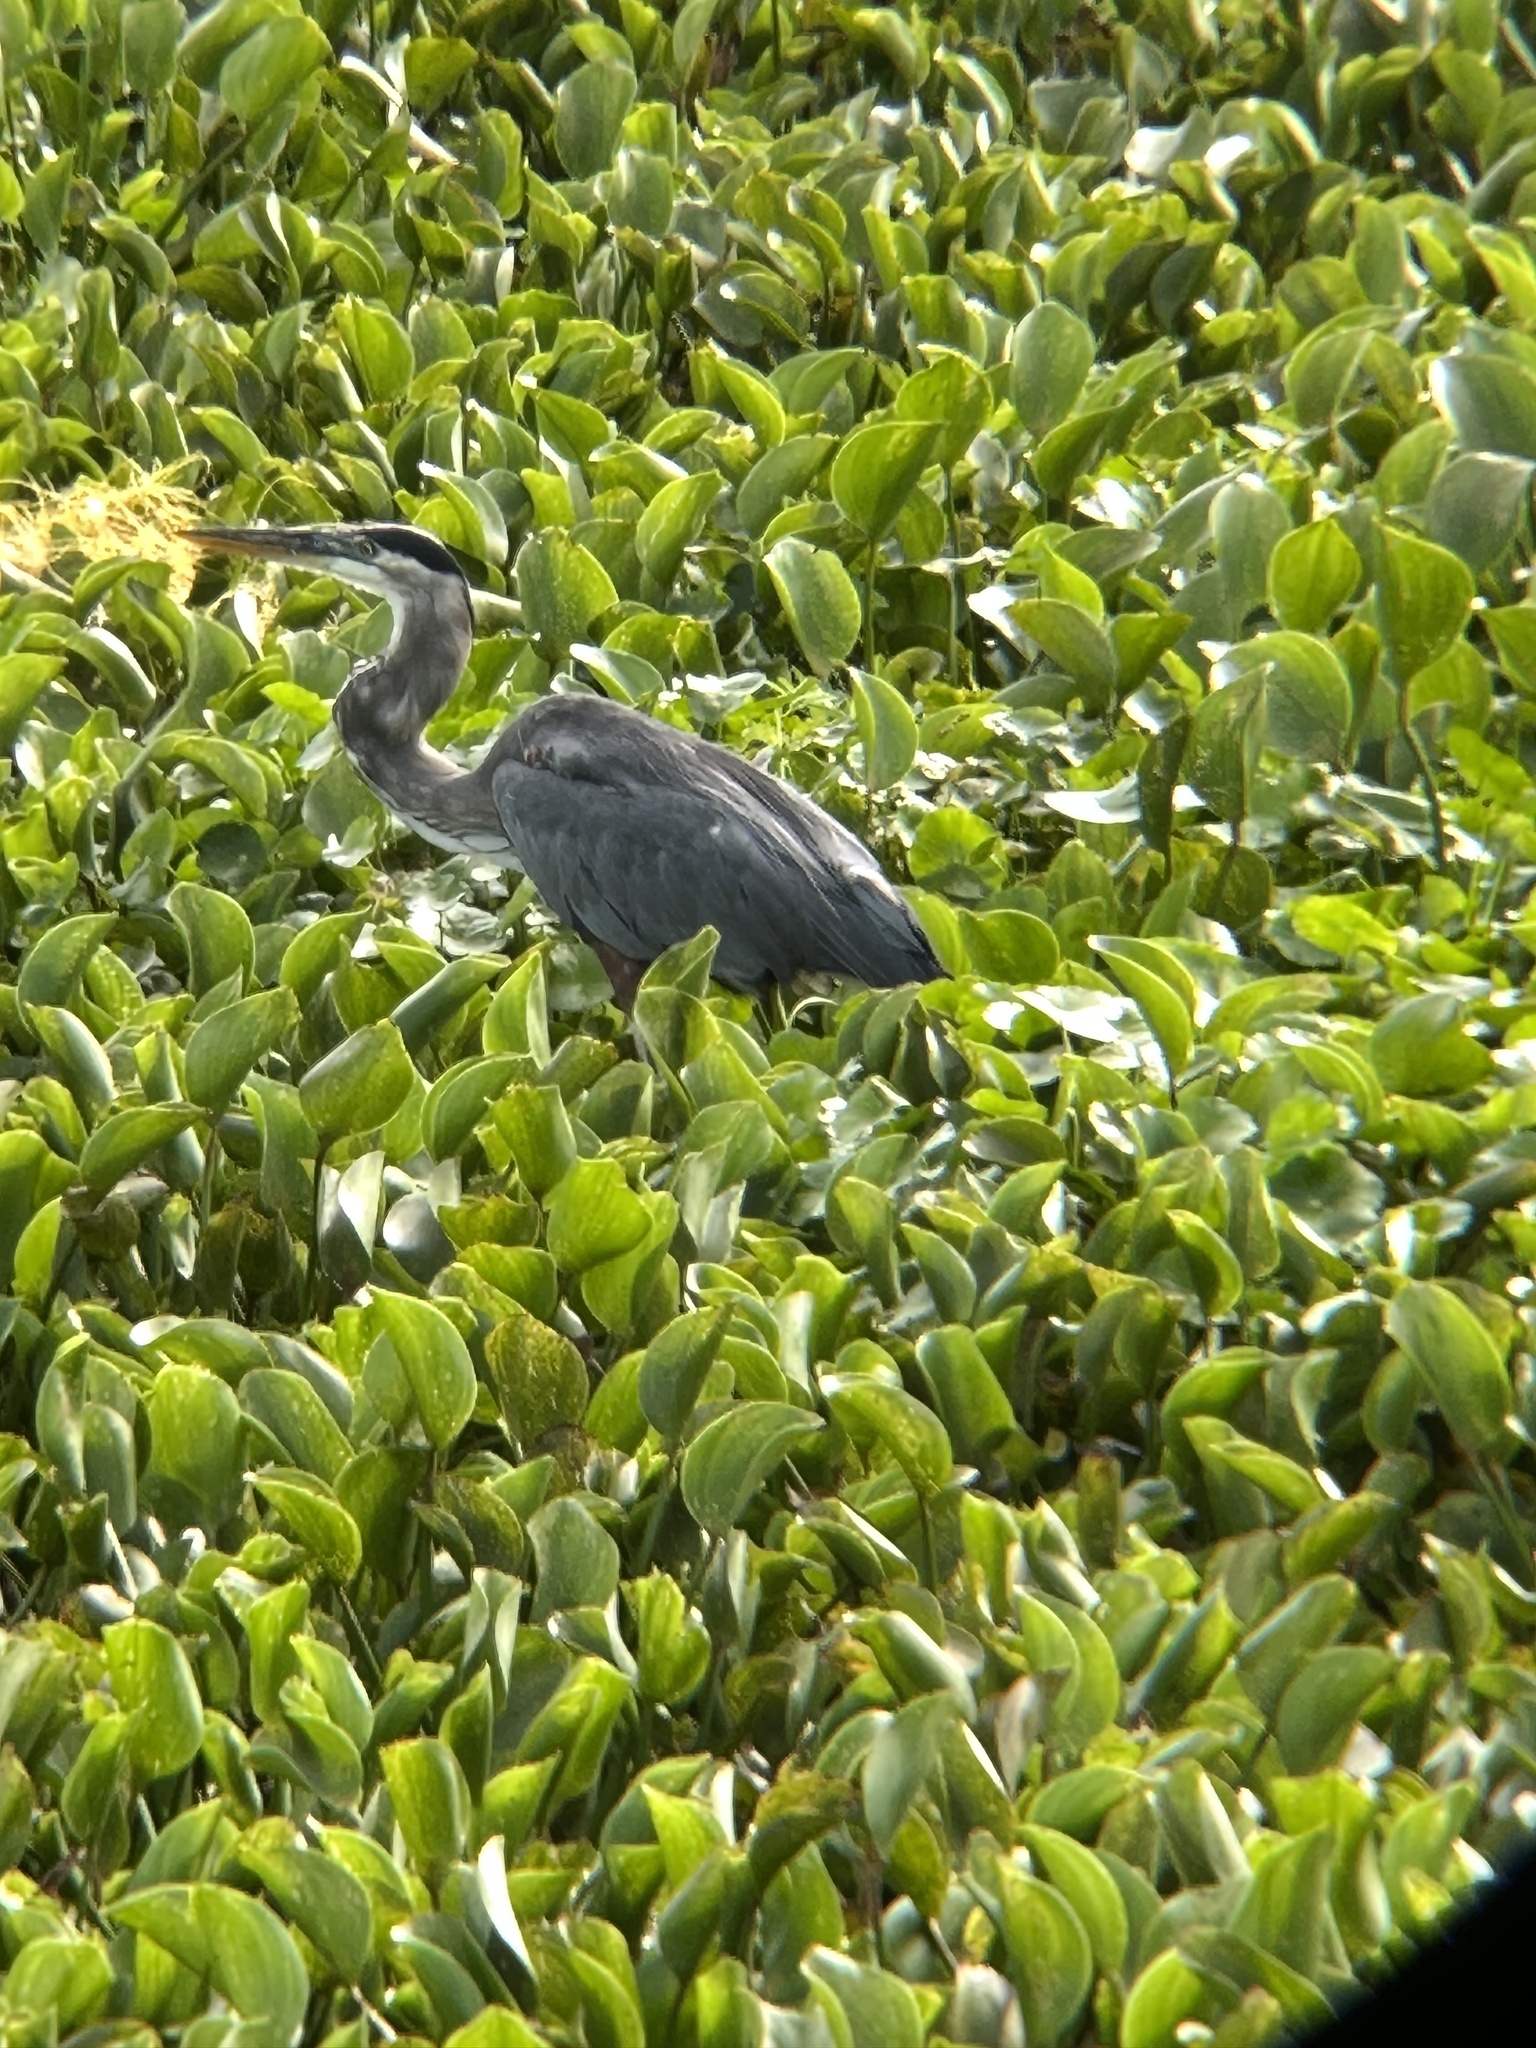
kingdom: Animalia
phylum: Chordata
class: Aves
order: Pelecaniformes
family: Ardeidae
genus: Ardea
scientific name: Ardea herodias
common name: Great blue heron
